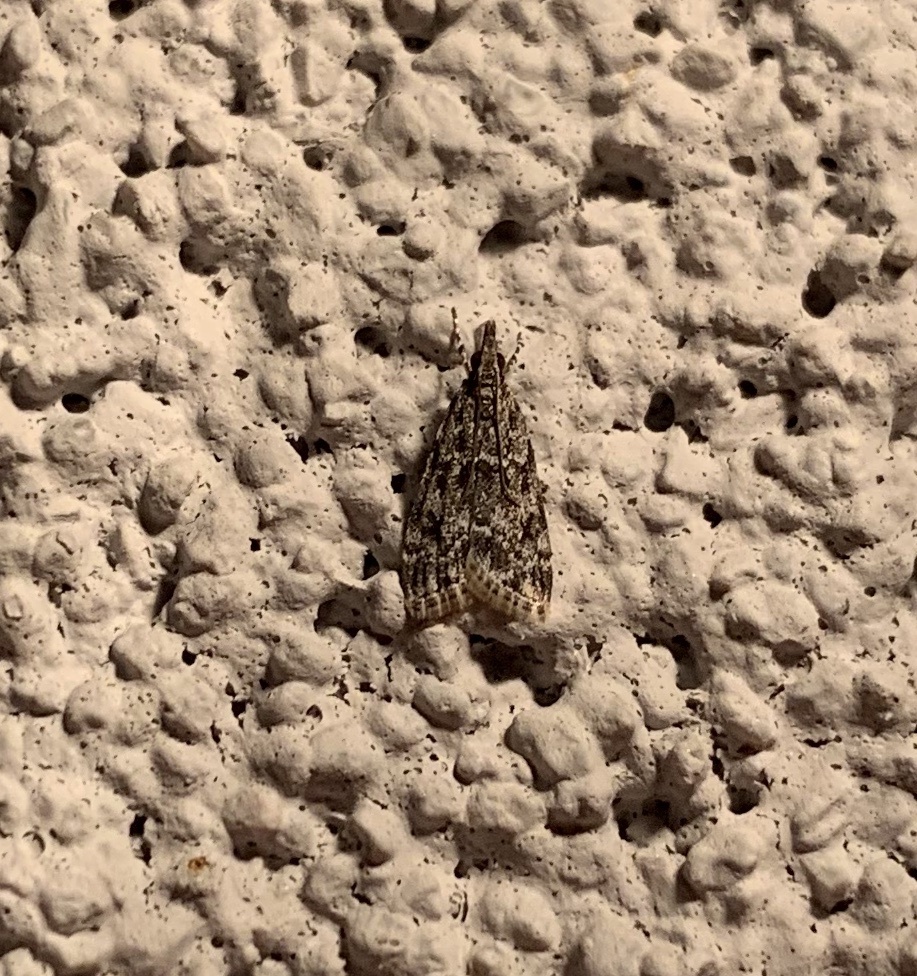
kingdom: Animalia
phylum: Arthropoda
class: Insecta
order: Lepidoptera
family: Crambidae
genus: Eudonia
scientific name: Eudonia heterosalis
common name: Mcdunnough's eudonia
